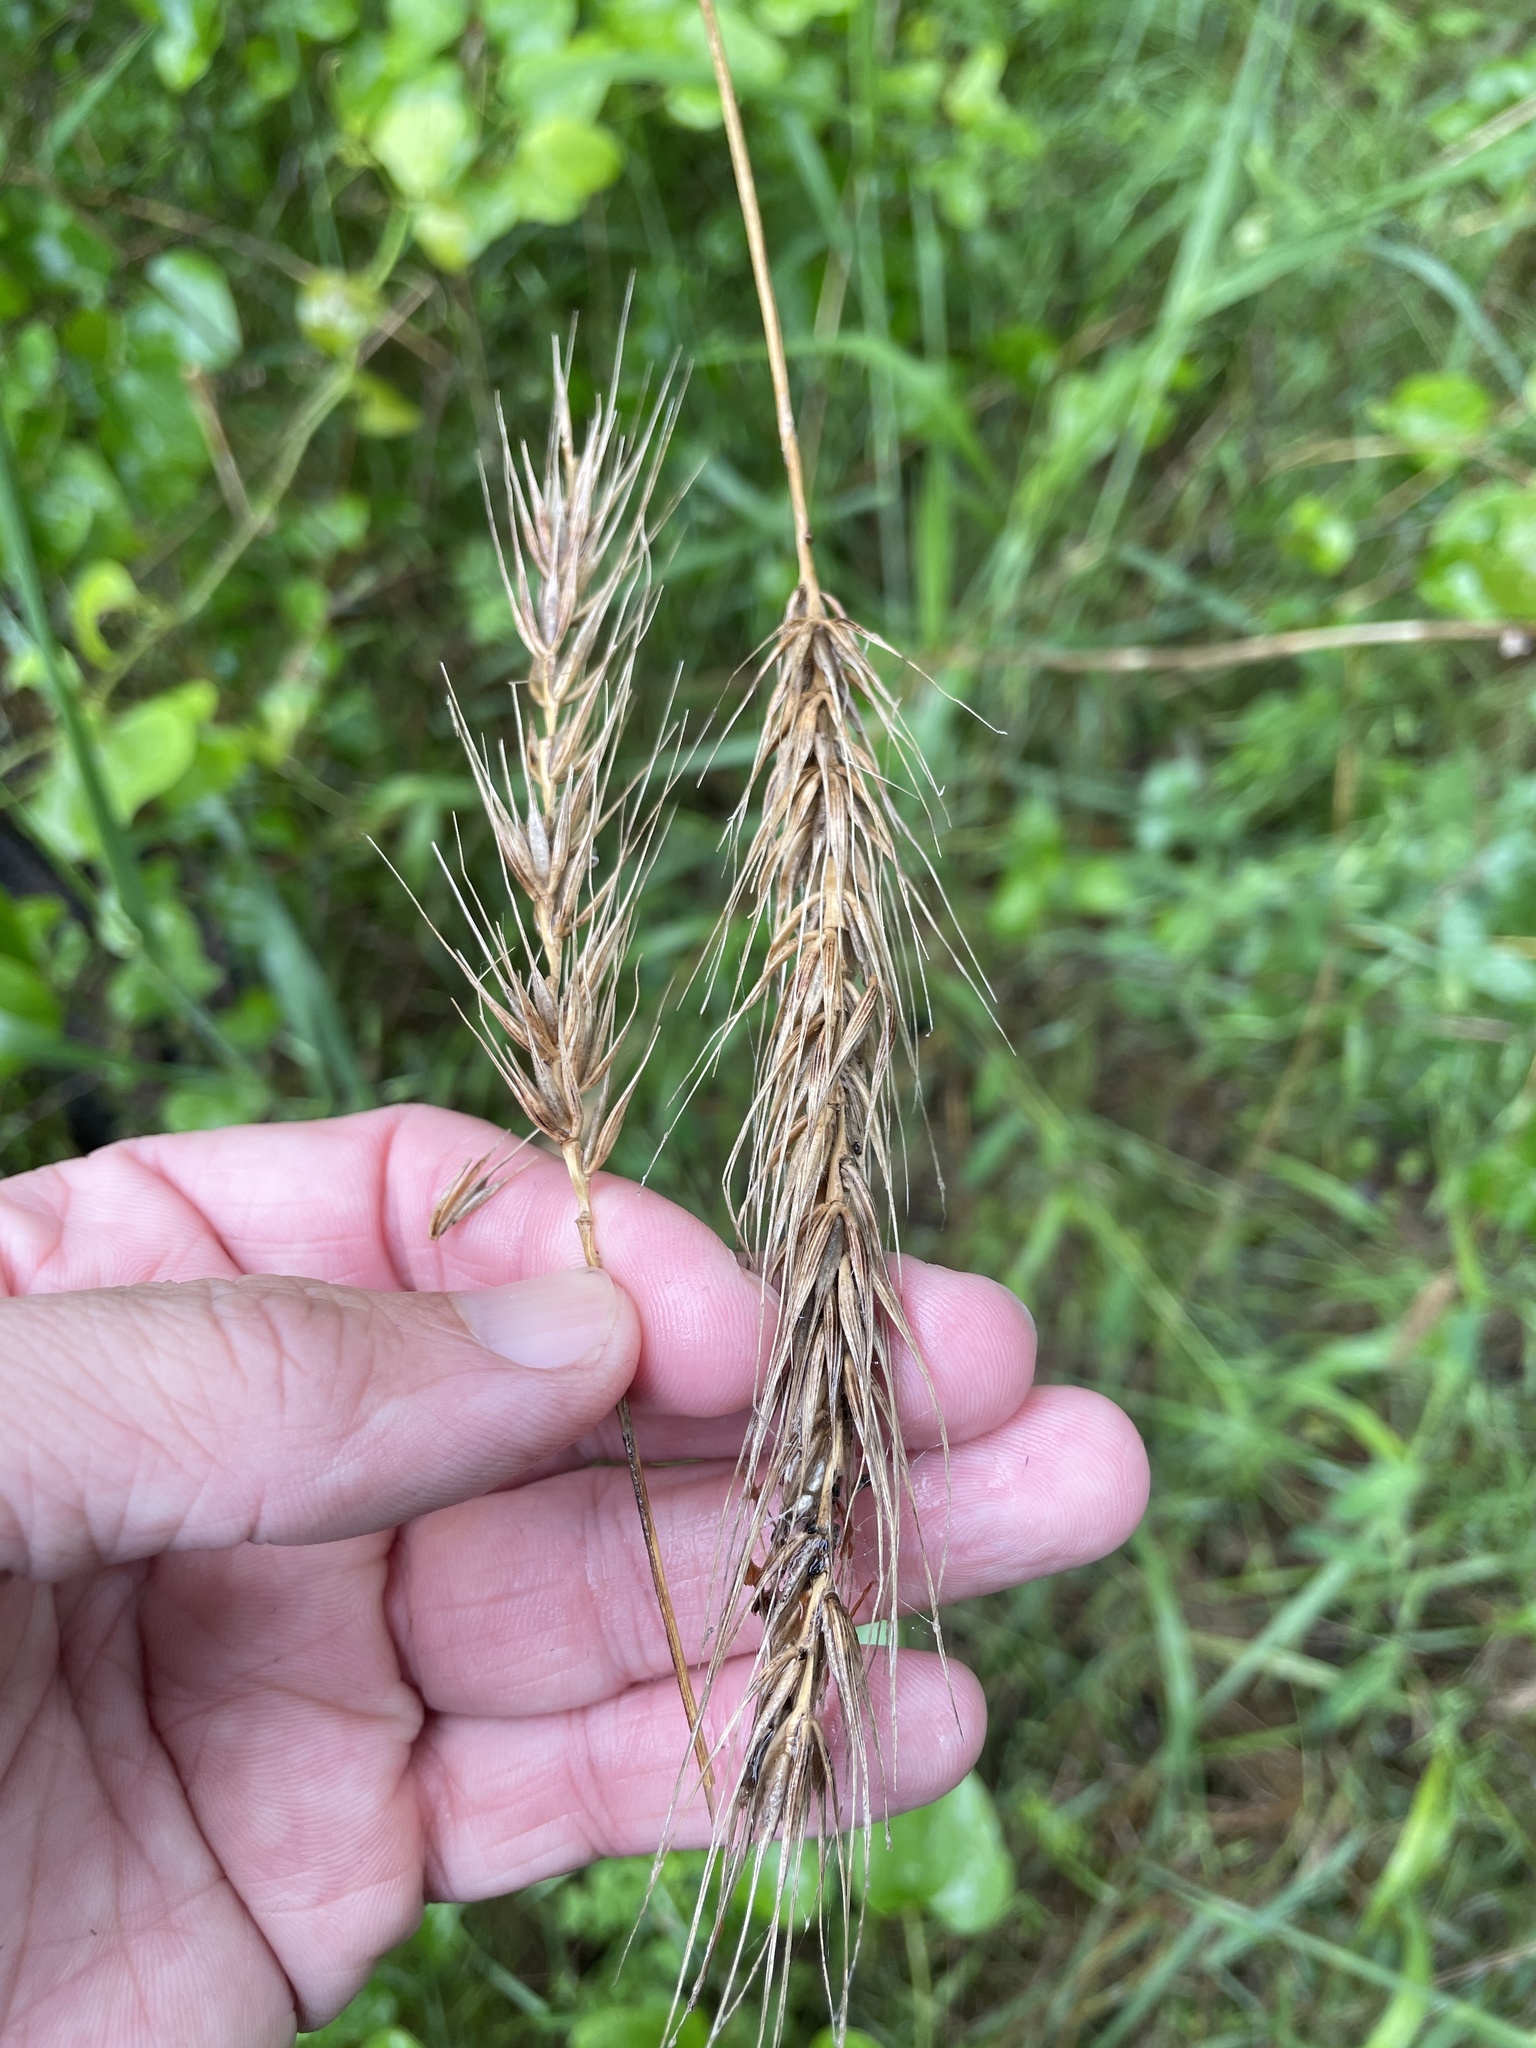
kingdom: Plantae
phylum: Tracheophyta
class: Liliopsida
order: Poales
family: Poaceae
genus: Elymus
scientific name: Elymus virginicus
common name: Common eastern wildrye
